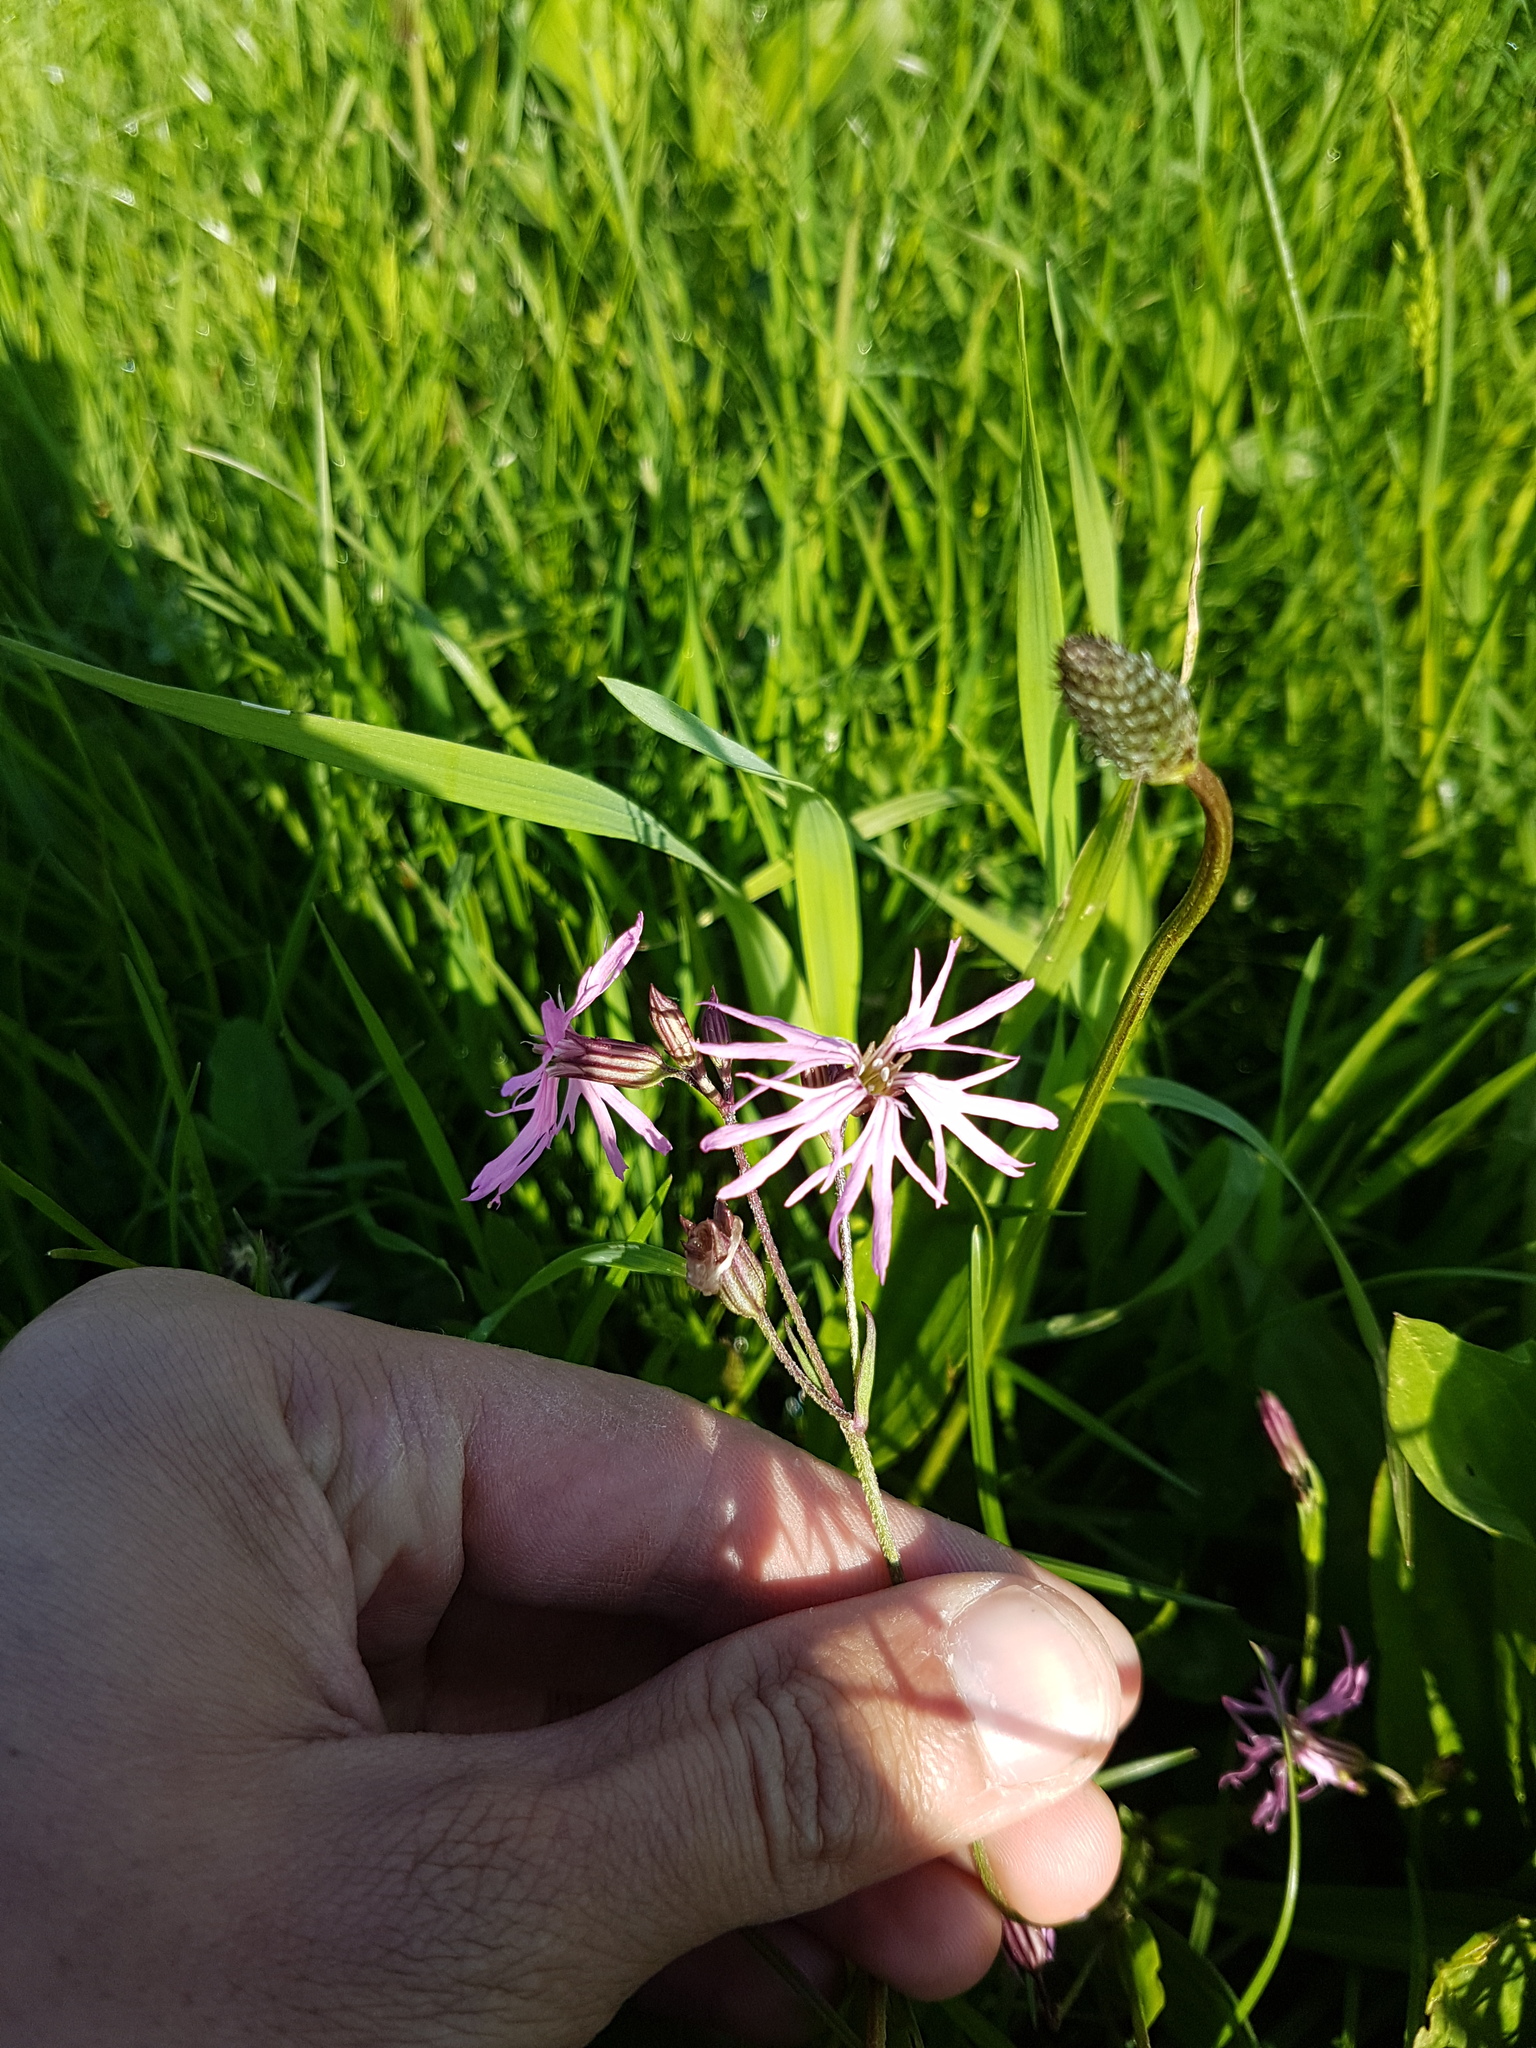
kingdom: Plantae
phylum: Tracheophyta
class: Magnoliopsida
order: Caryophyllales
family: Caryophyllaceae
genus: Silene
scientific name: Silene flos-cuculi
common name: Ragged-robin
